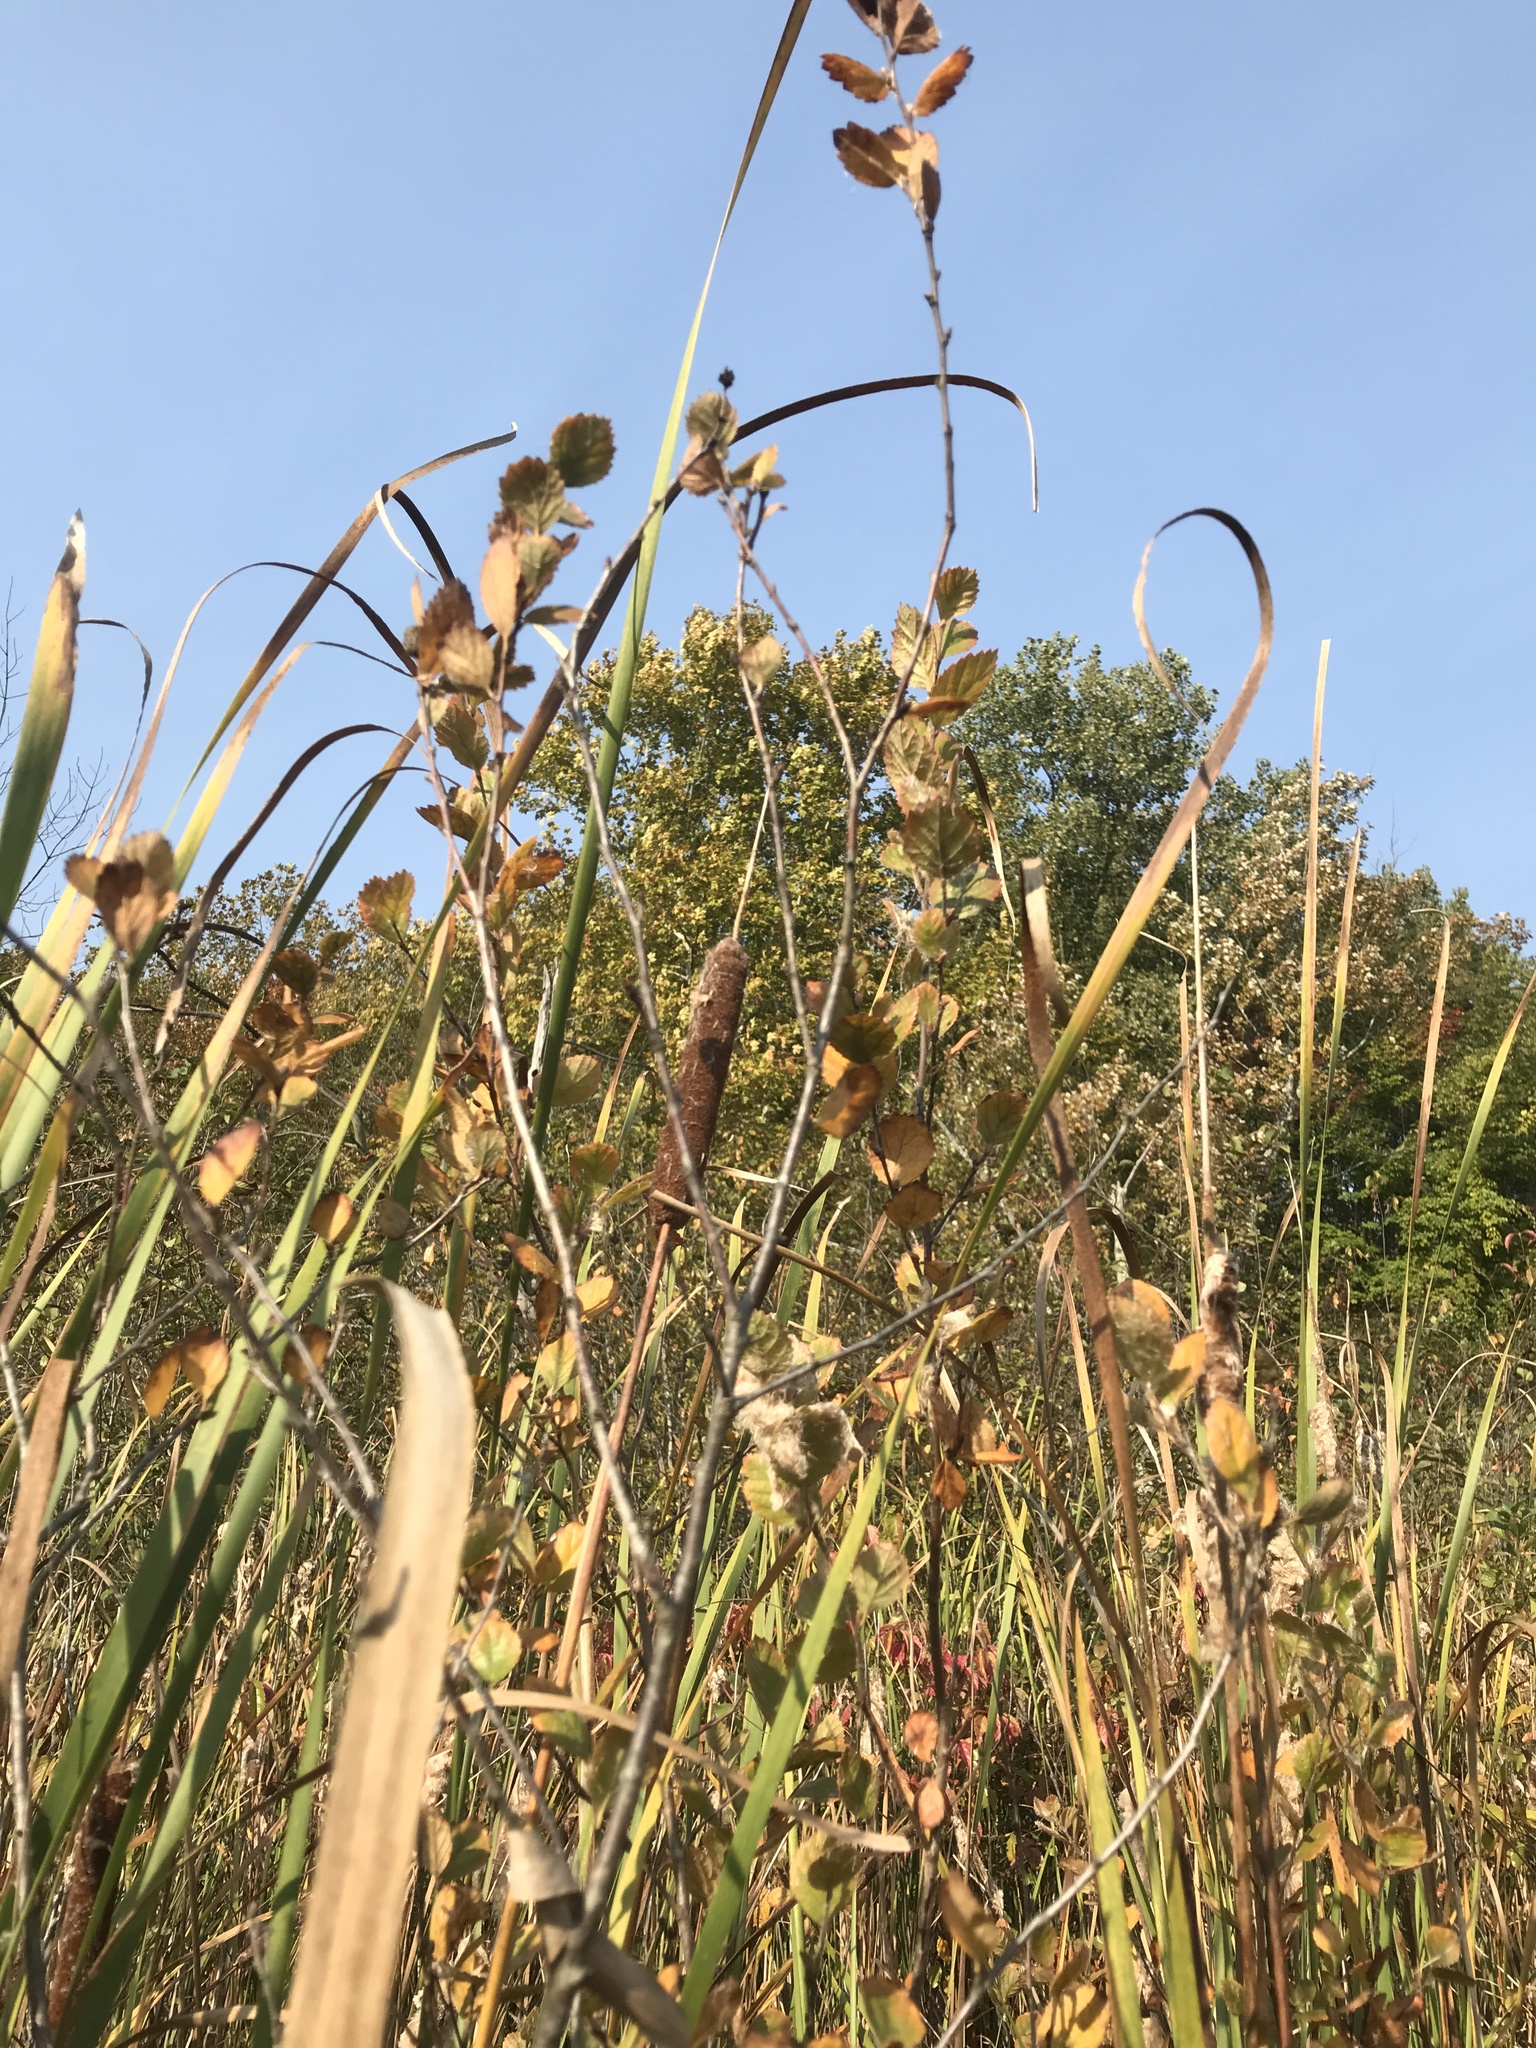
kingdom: Plantae
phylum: Tracheophyta
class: Magnoliopsida
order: Fagales
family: Betulaceae
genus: Betula
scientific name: Betula pumila
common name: Bog birch
